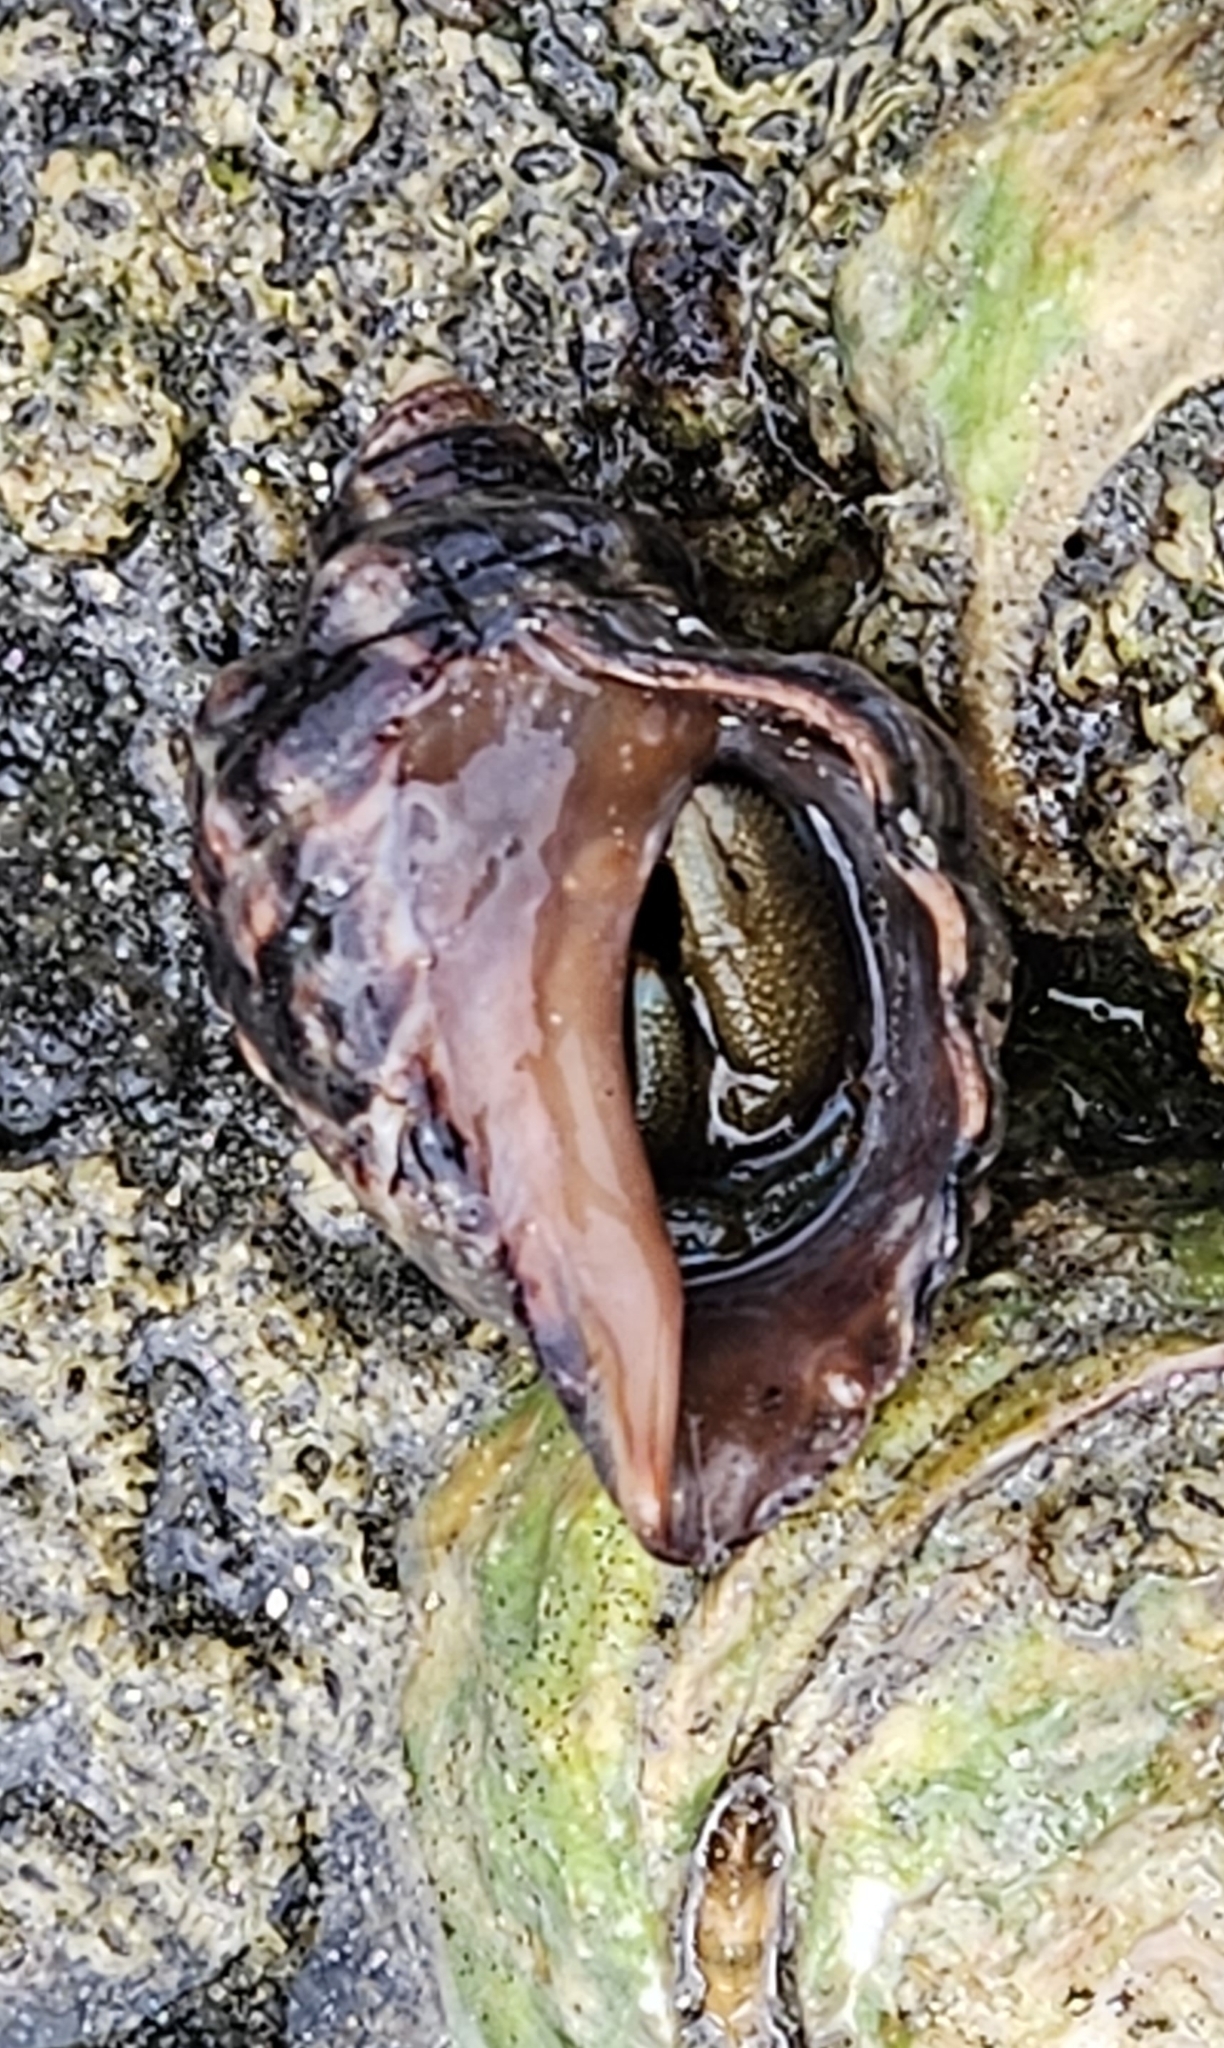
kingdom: Animalia
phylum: Mollusca
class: Gastropoda
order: Neogastropoda
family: Muricidae
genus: Mexacanthina
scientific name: Mexacanthina lugubris
